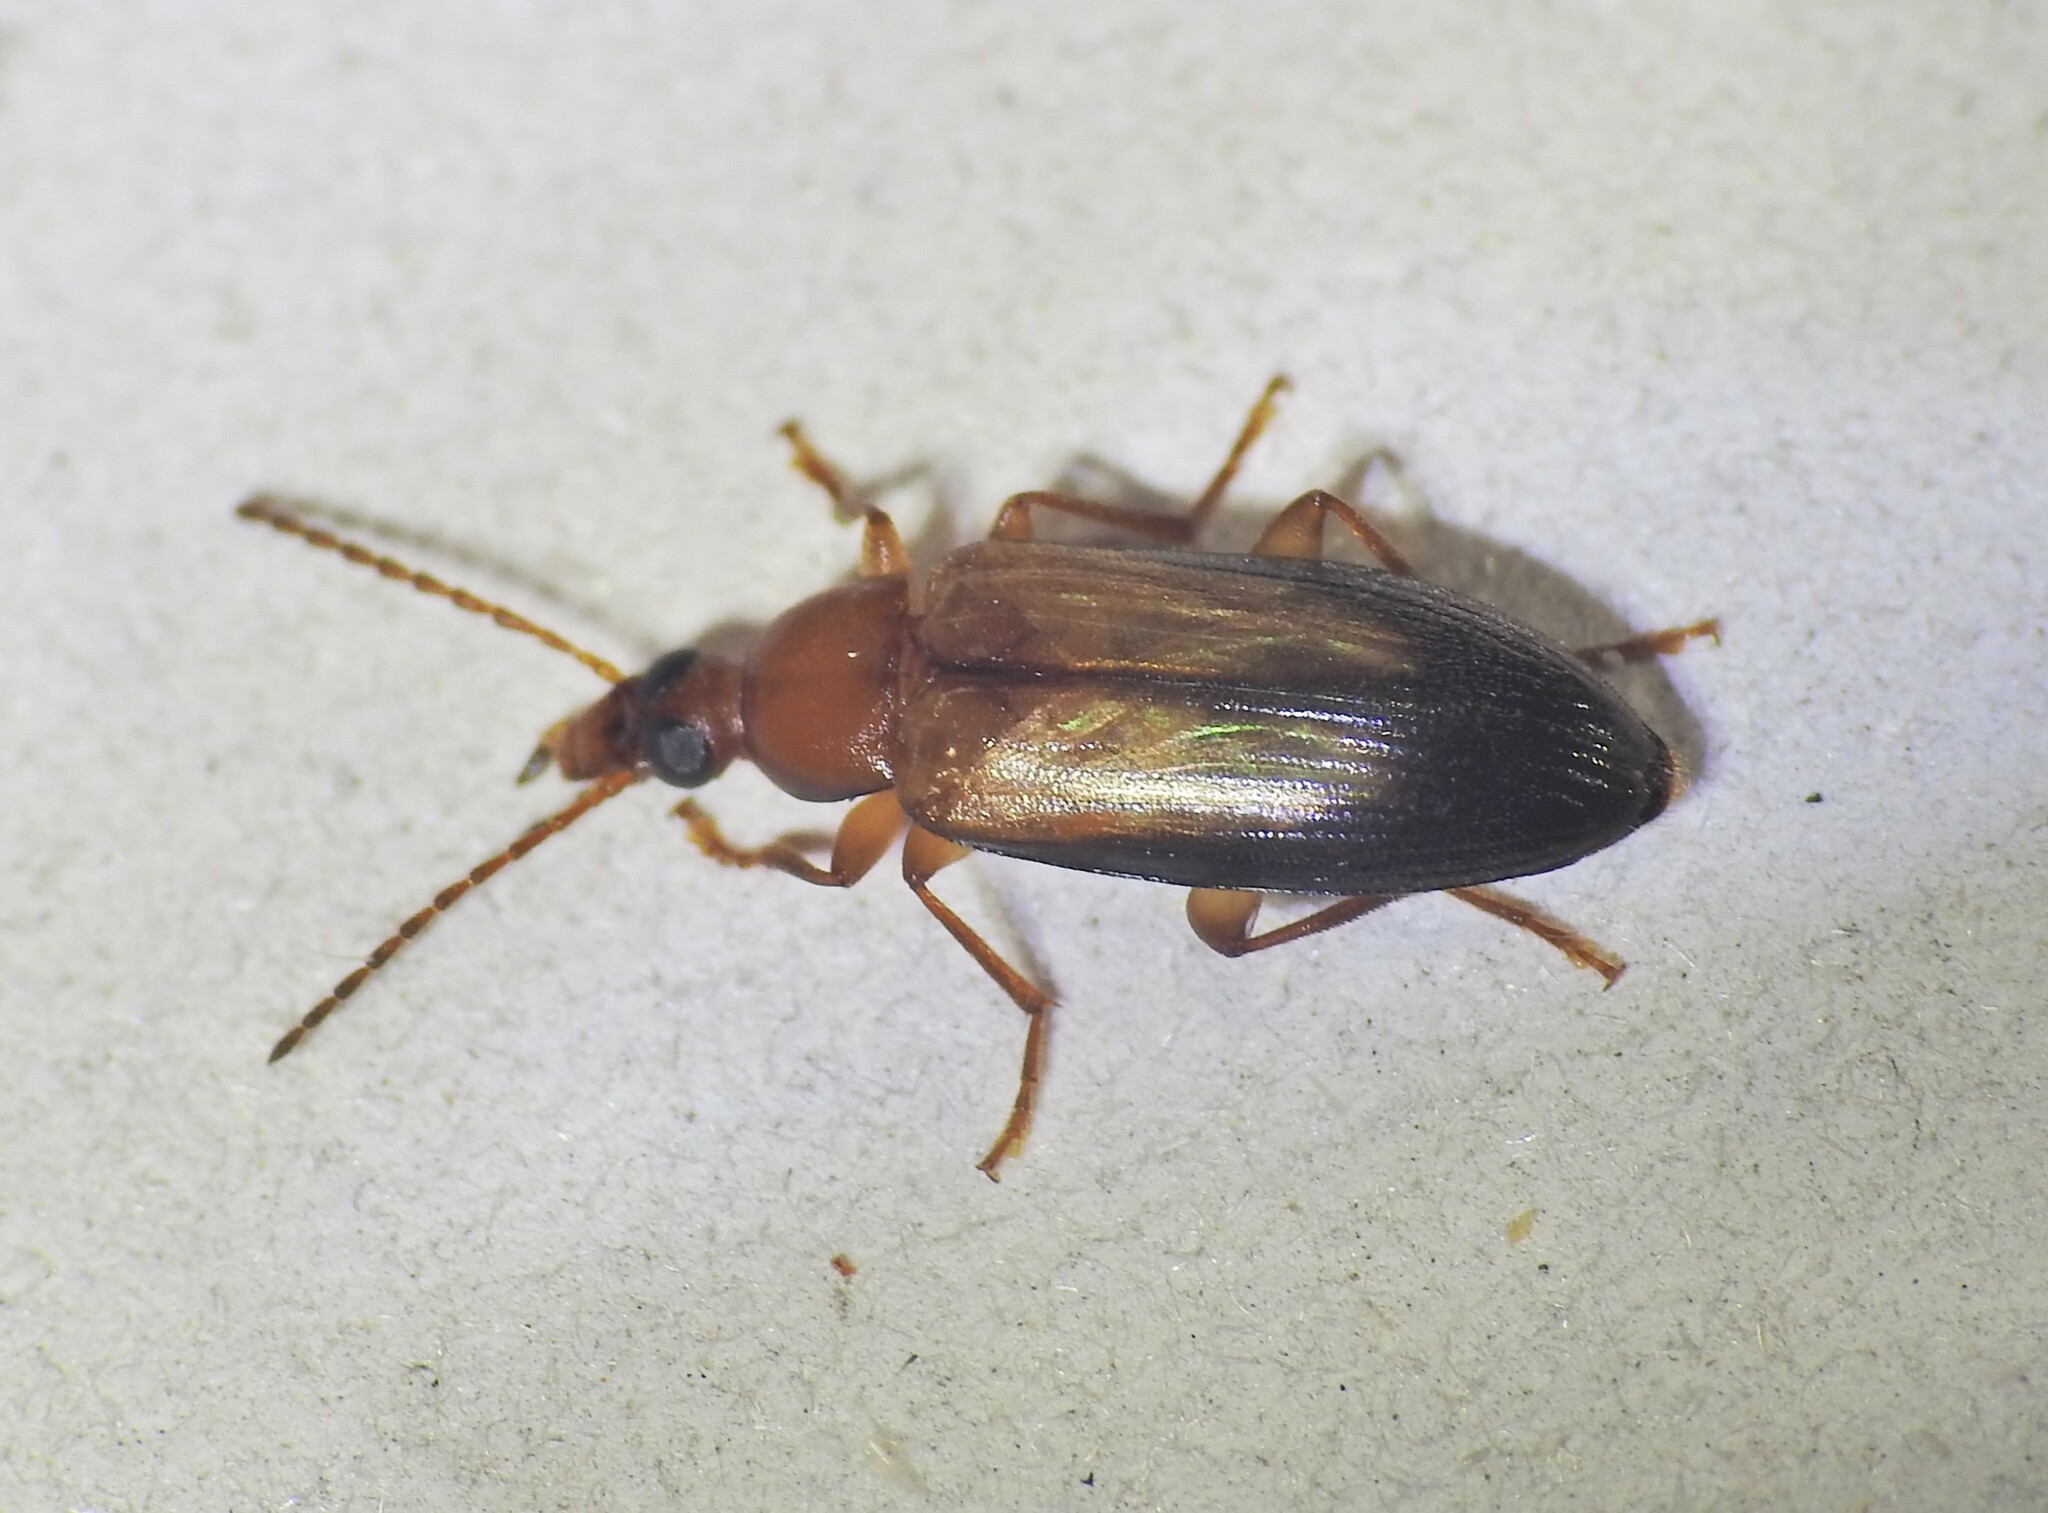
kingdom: Animalia
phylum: Arthropoda
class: Insecta
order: Coleoptera
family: Tenebrionidae
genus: Euomma
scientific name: Euomma
